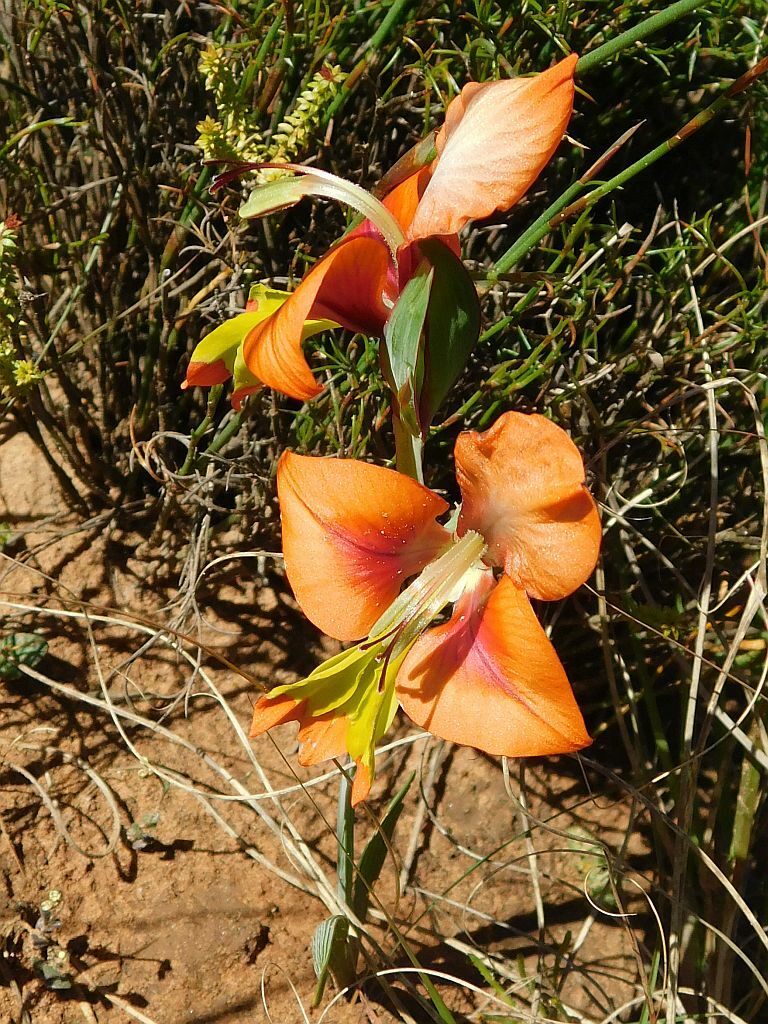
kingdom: Plantae
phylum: Tracheophyta
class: Liliopsida
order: Asparagales
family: Iridaceae
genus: Gladiolus
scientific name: Gladiolus alatus
